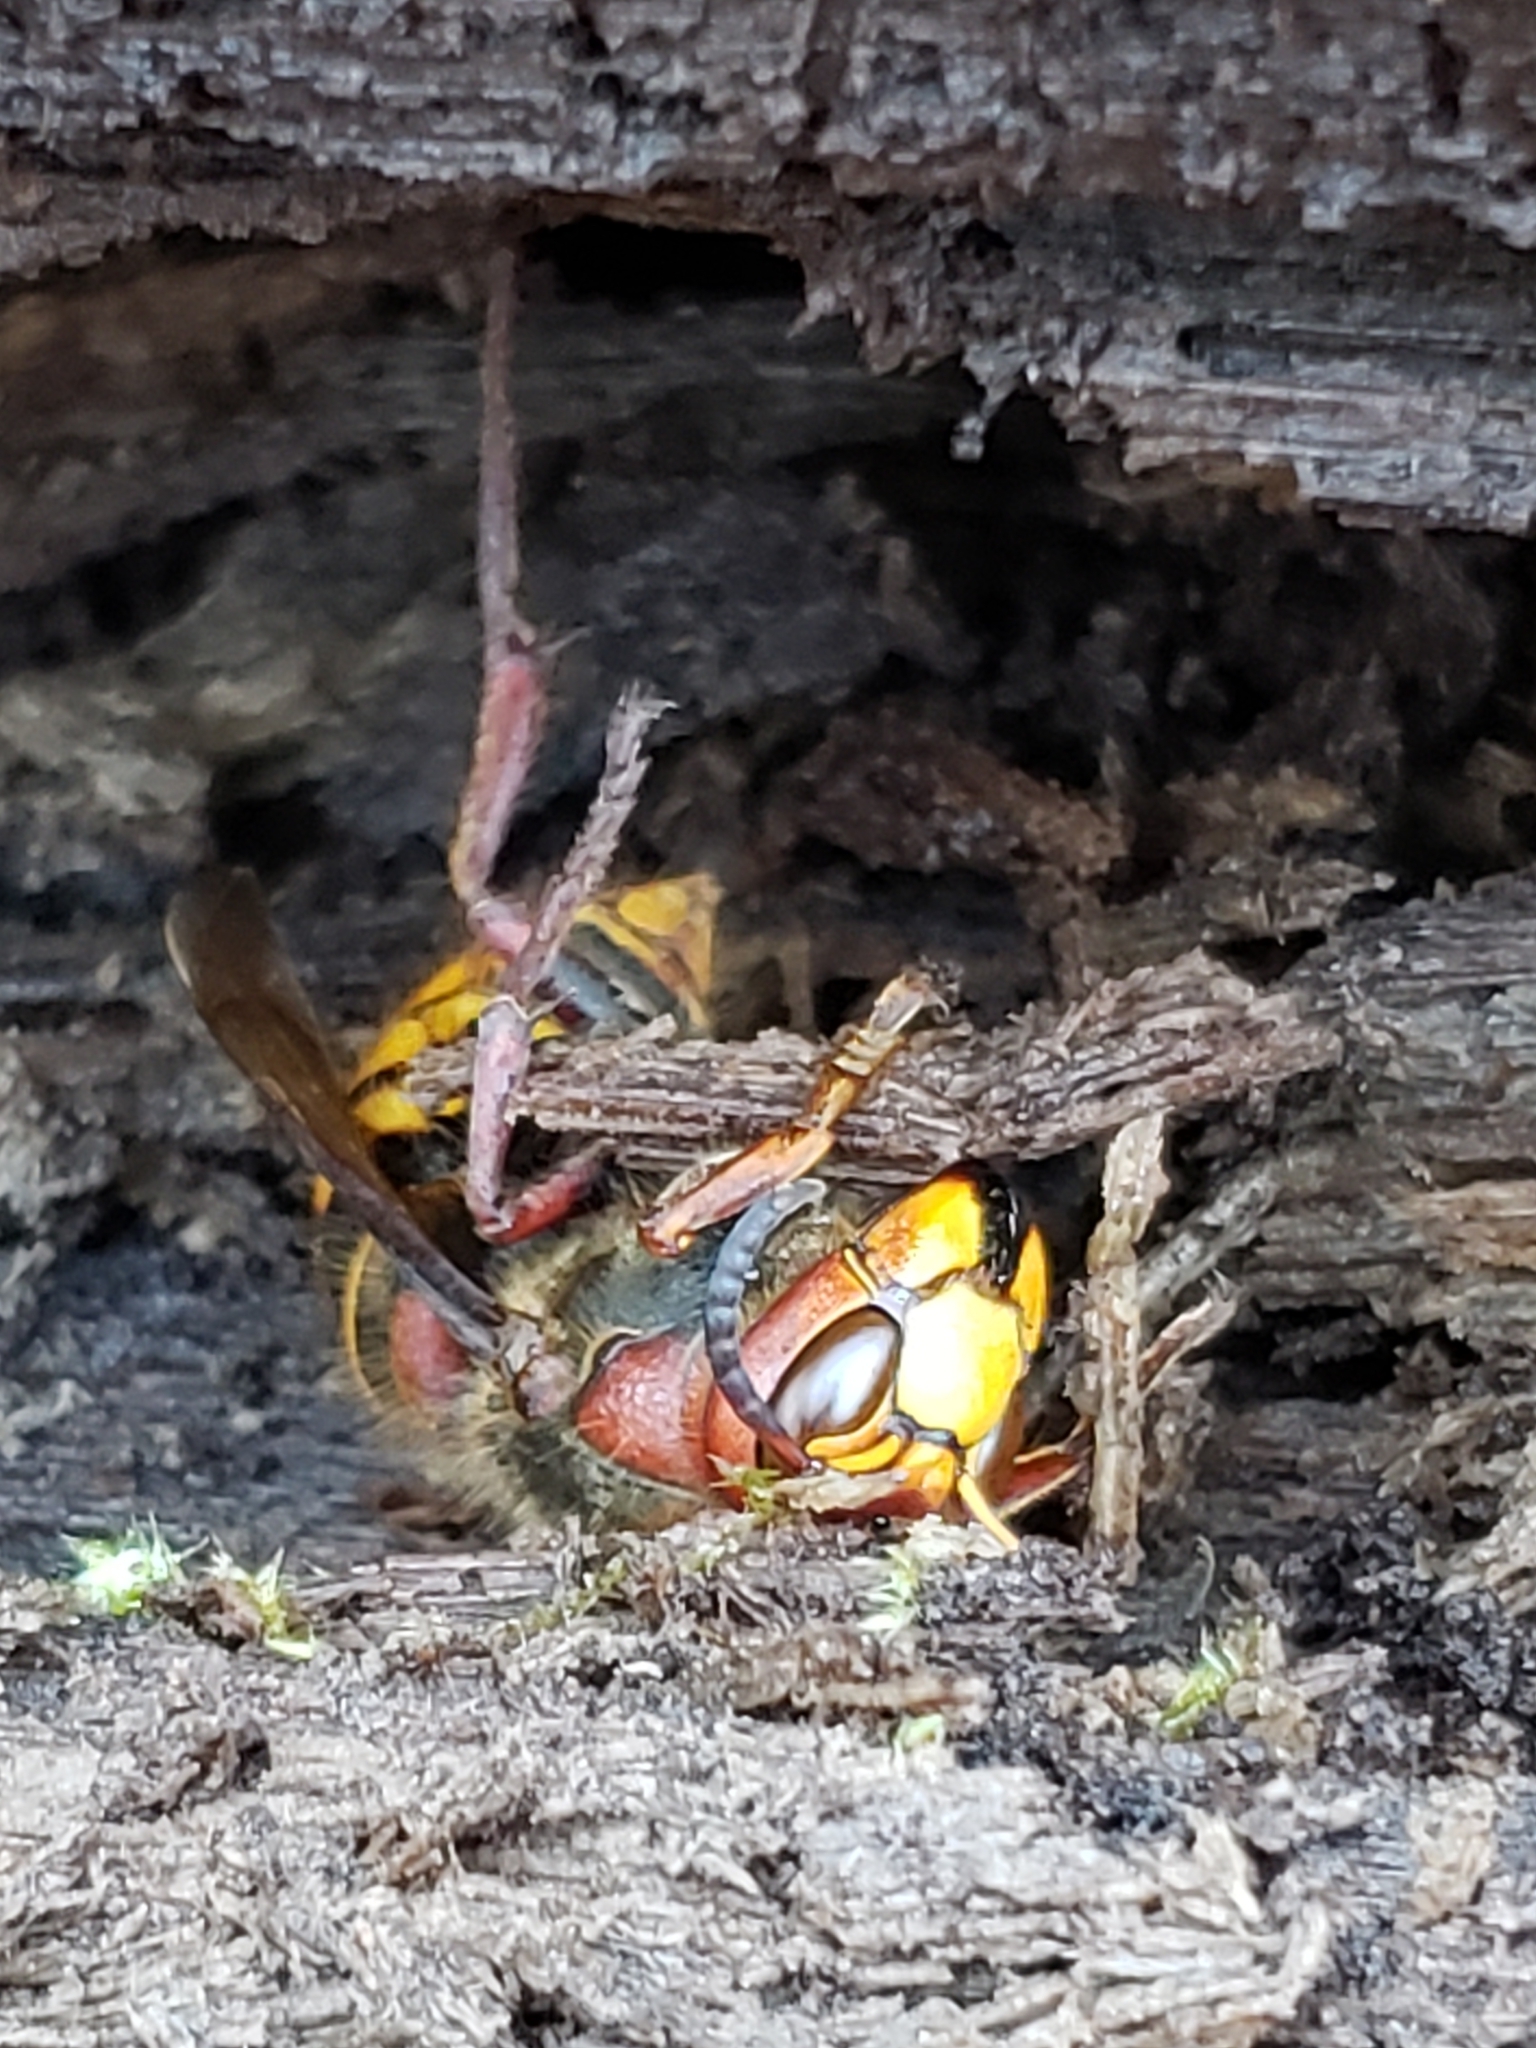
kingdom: Animalia
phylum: Arthropoda
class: Insecta
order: Hymenoptera
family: Vespidae
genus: Vespa
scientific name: Vespa crabro
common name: Hornet
